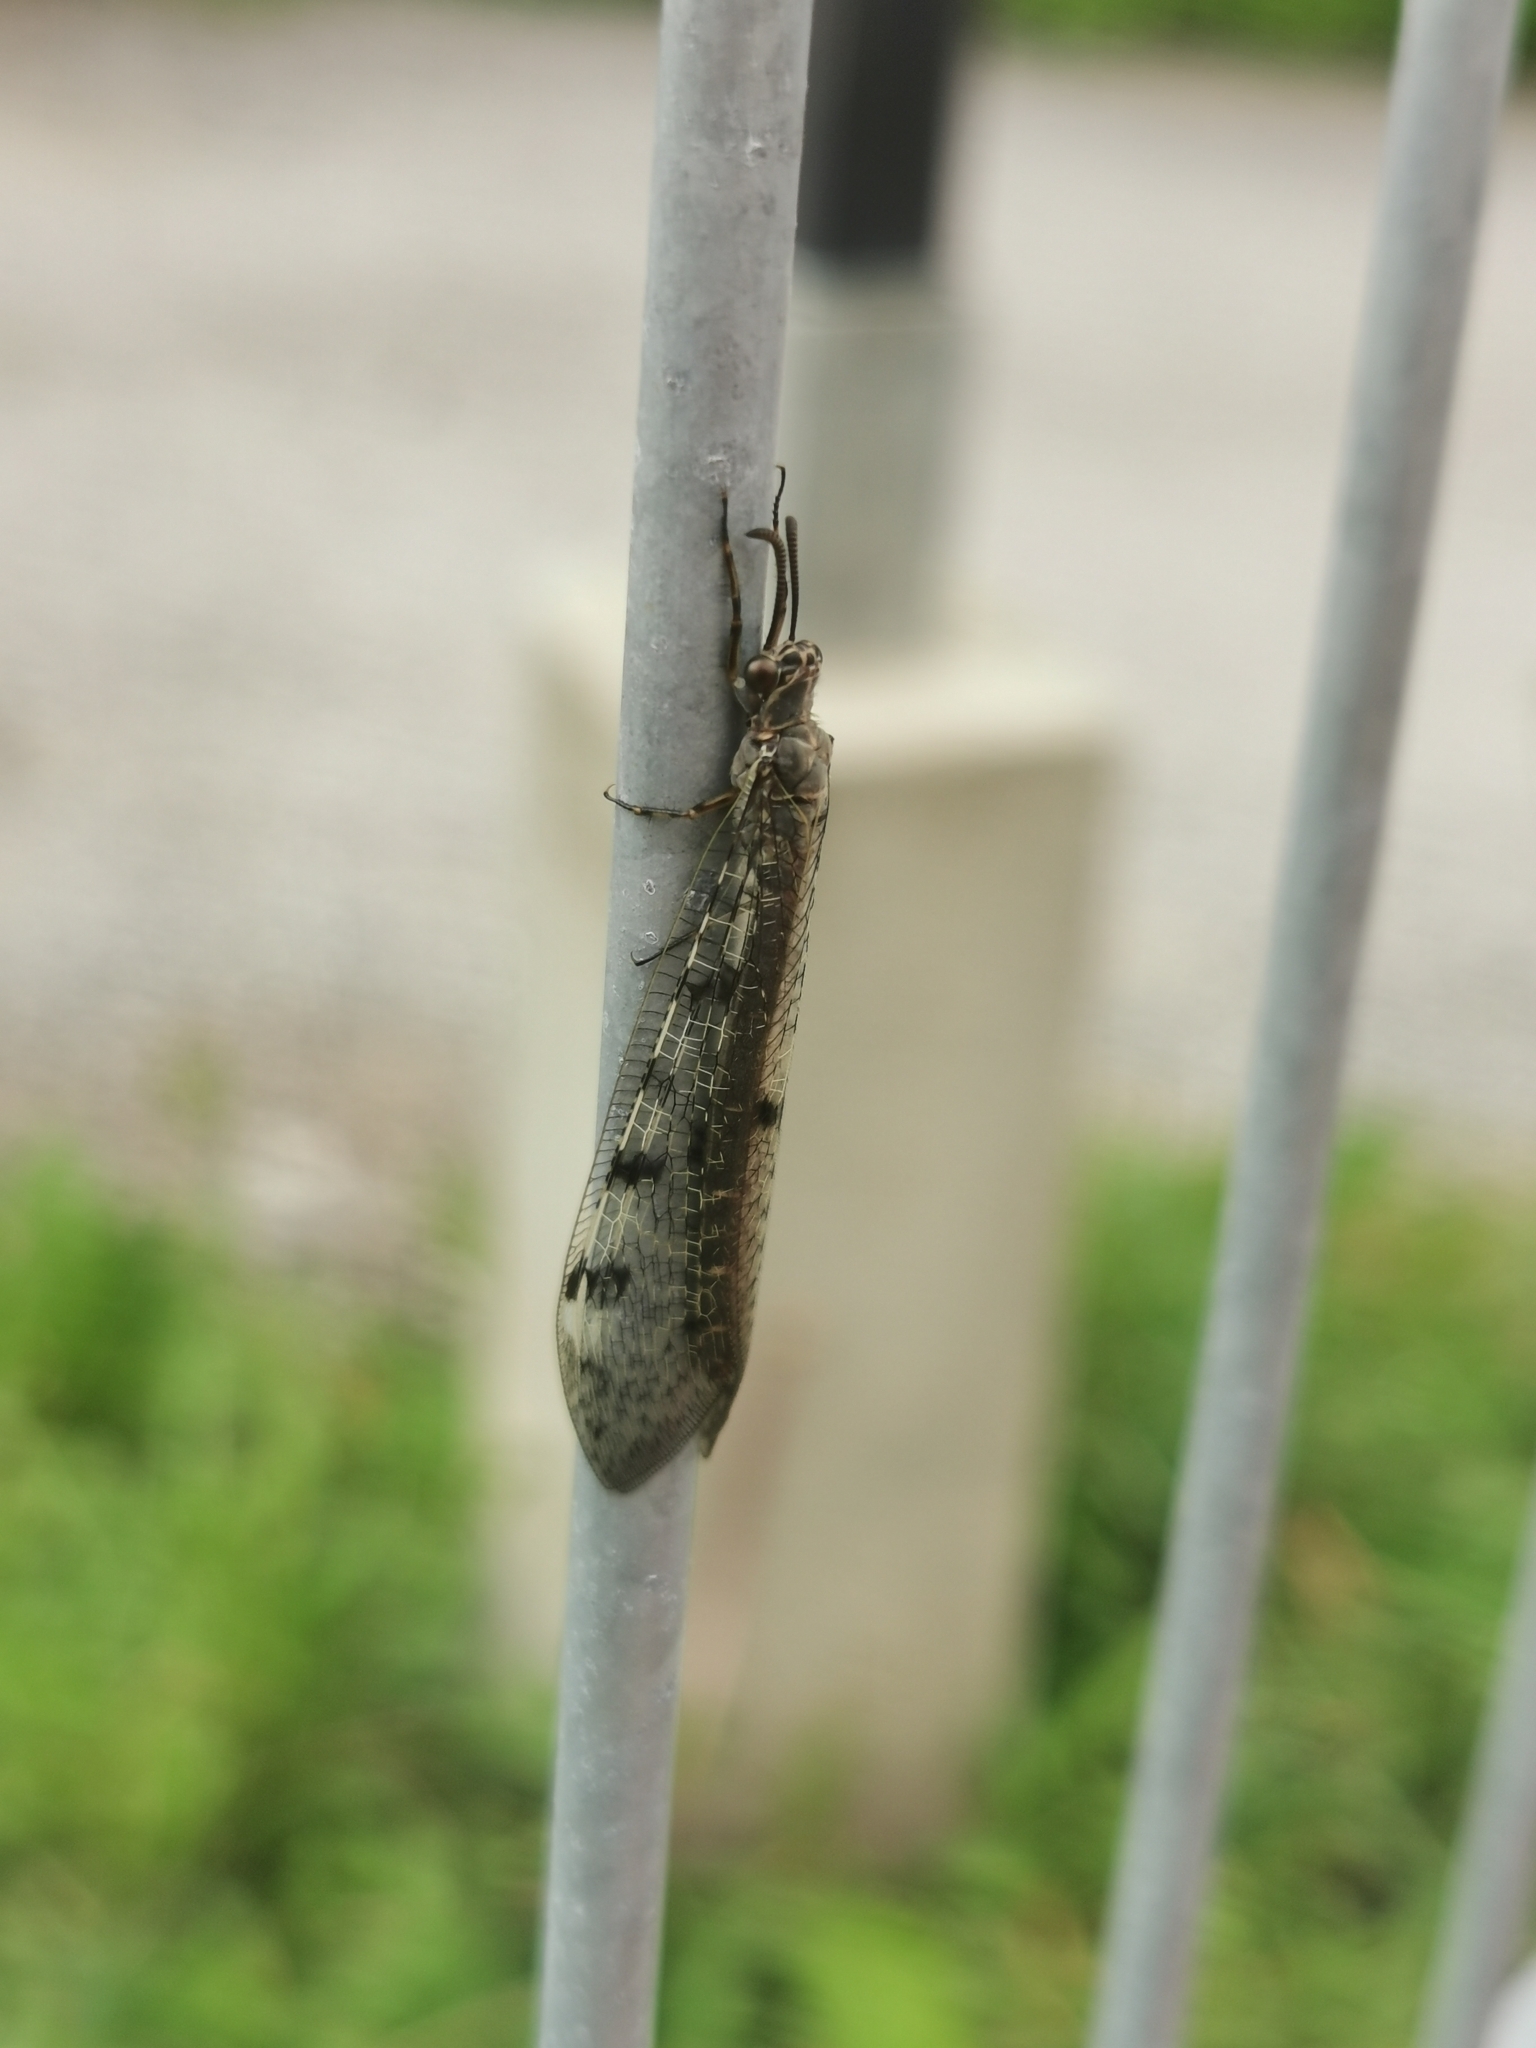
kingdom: Animalia
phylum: Arthropoda
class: Insecta
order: Neuroptera
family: Myrmeleontidae
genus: Euroleon
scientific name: Euroleon nostras
